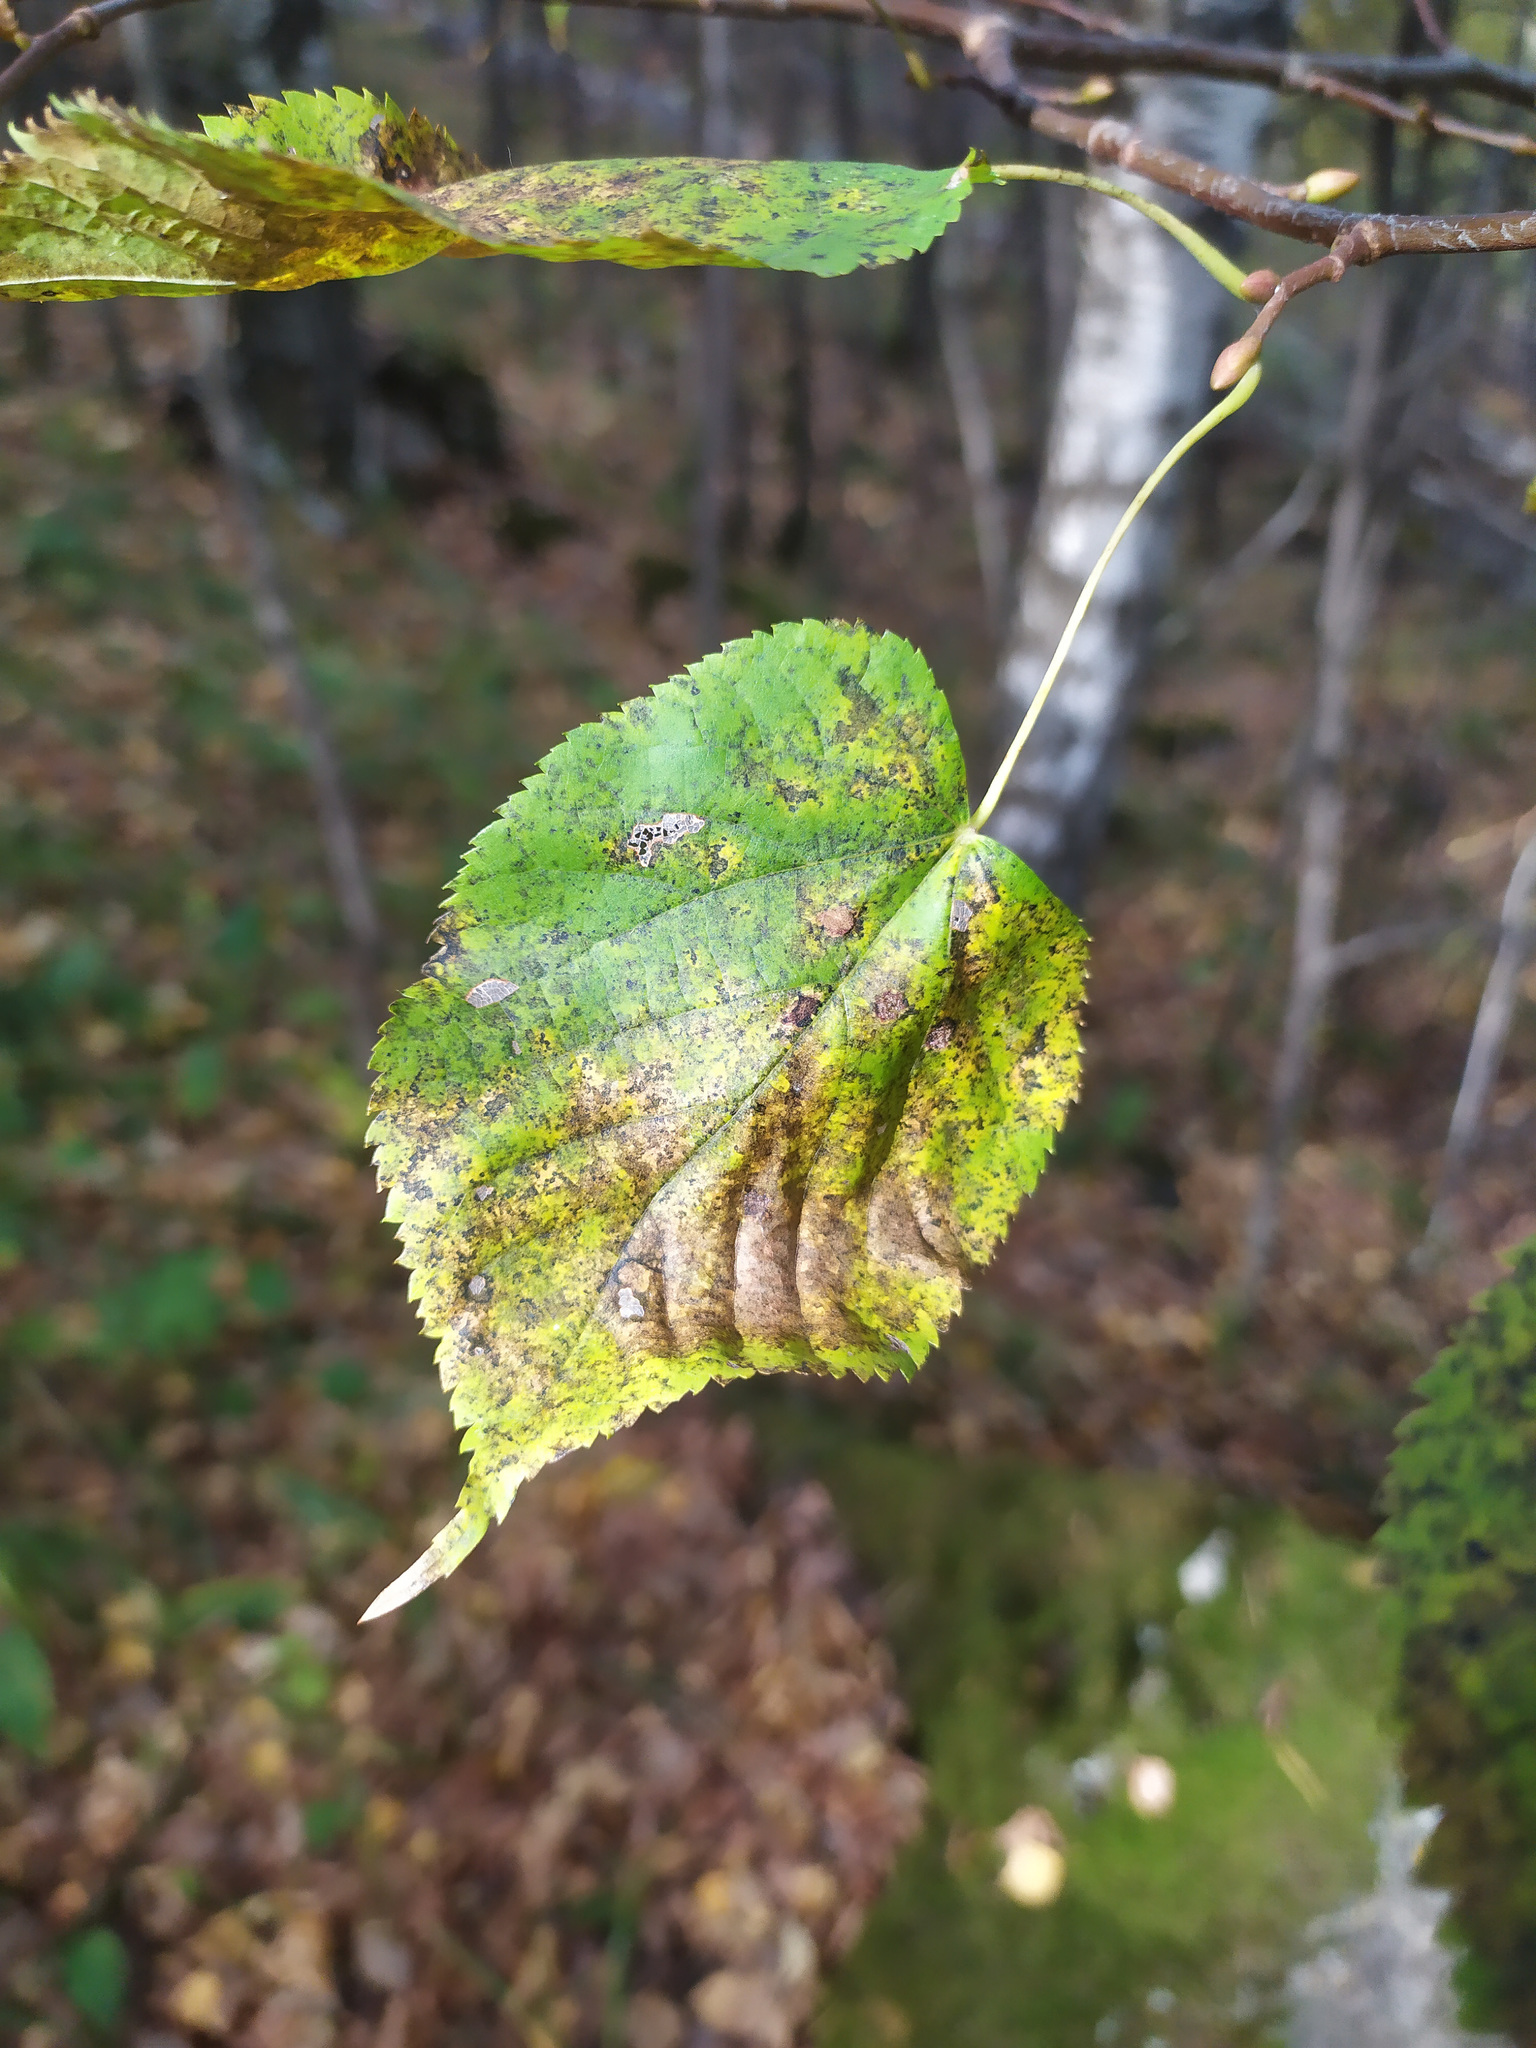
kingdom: Plantae
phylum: Tracheophyta
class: Magnoliopsida
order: Malvales
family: Malvaceae
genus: Tilia
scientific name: Tilia cordata
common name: Small-leaved lime
